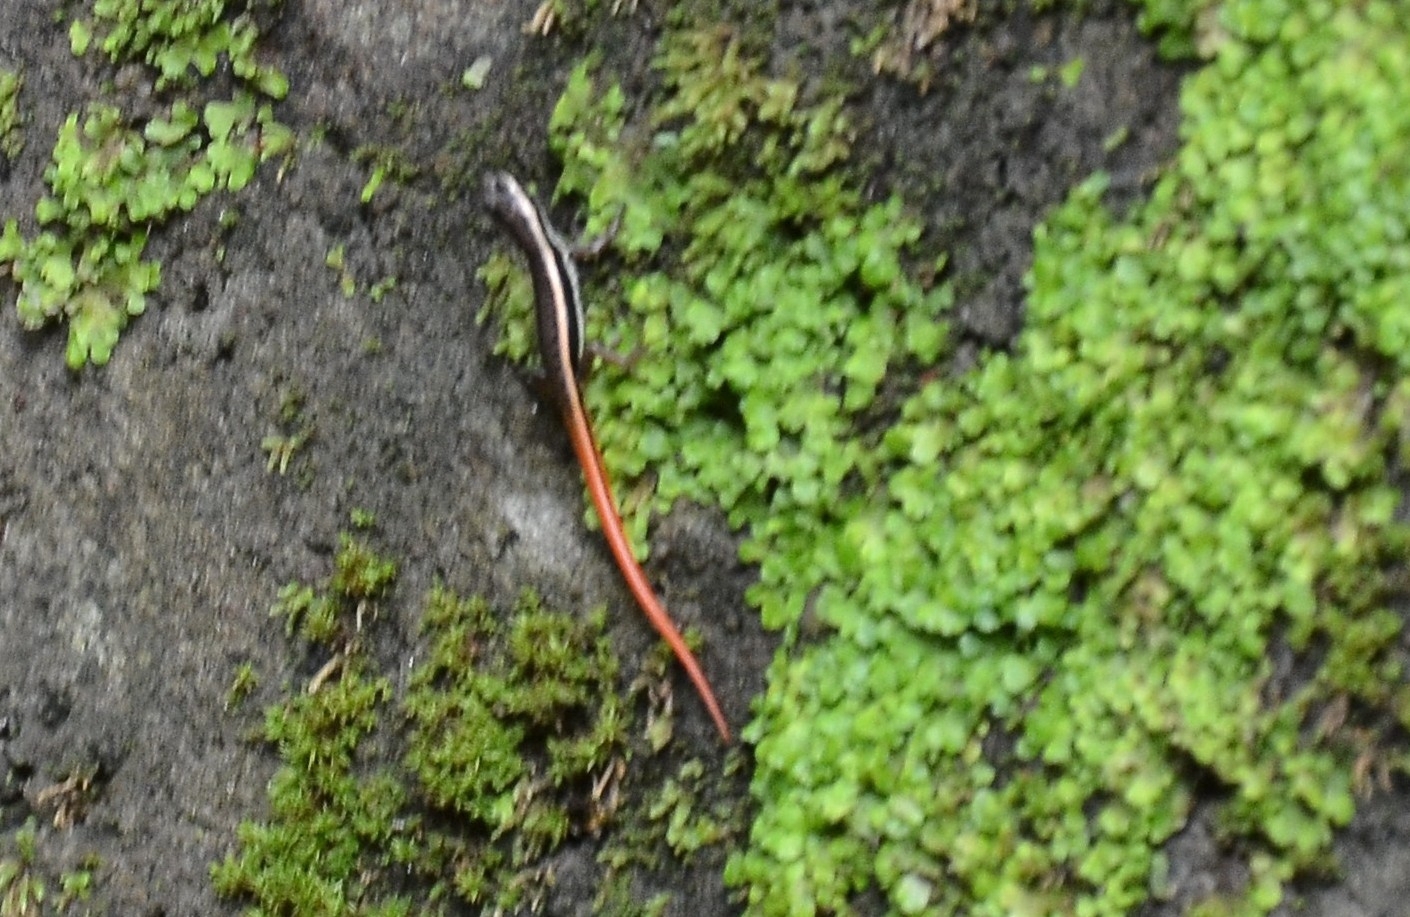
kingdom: Animalia
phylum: Chordata
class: Squamata
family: Scincidae
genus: Sphenomorphus
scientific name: Sphenomorphus dussumieri
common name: Dussumier's forest skink
